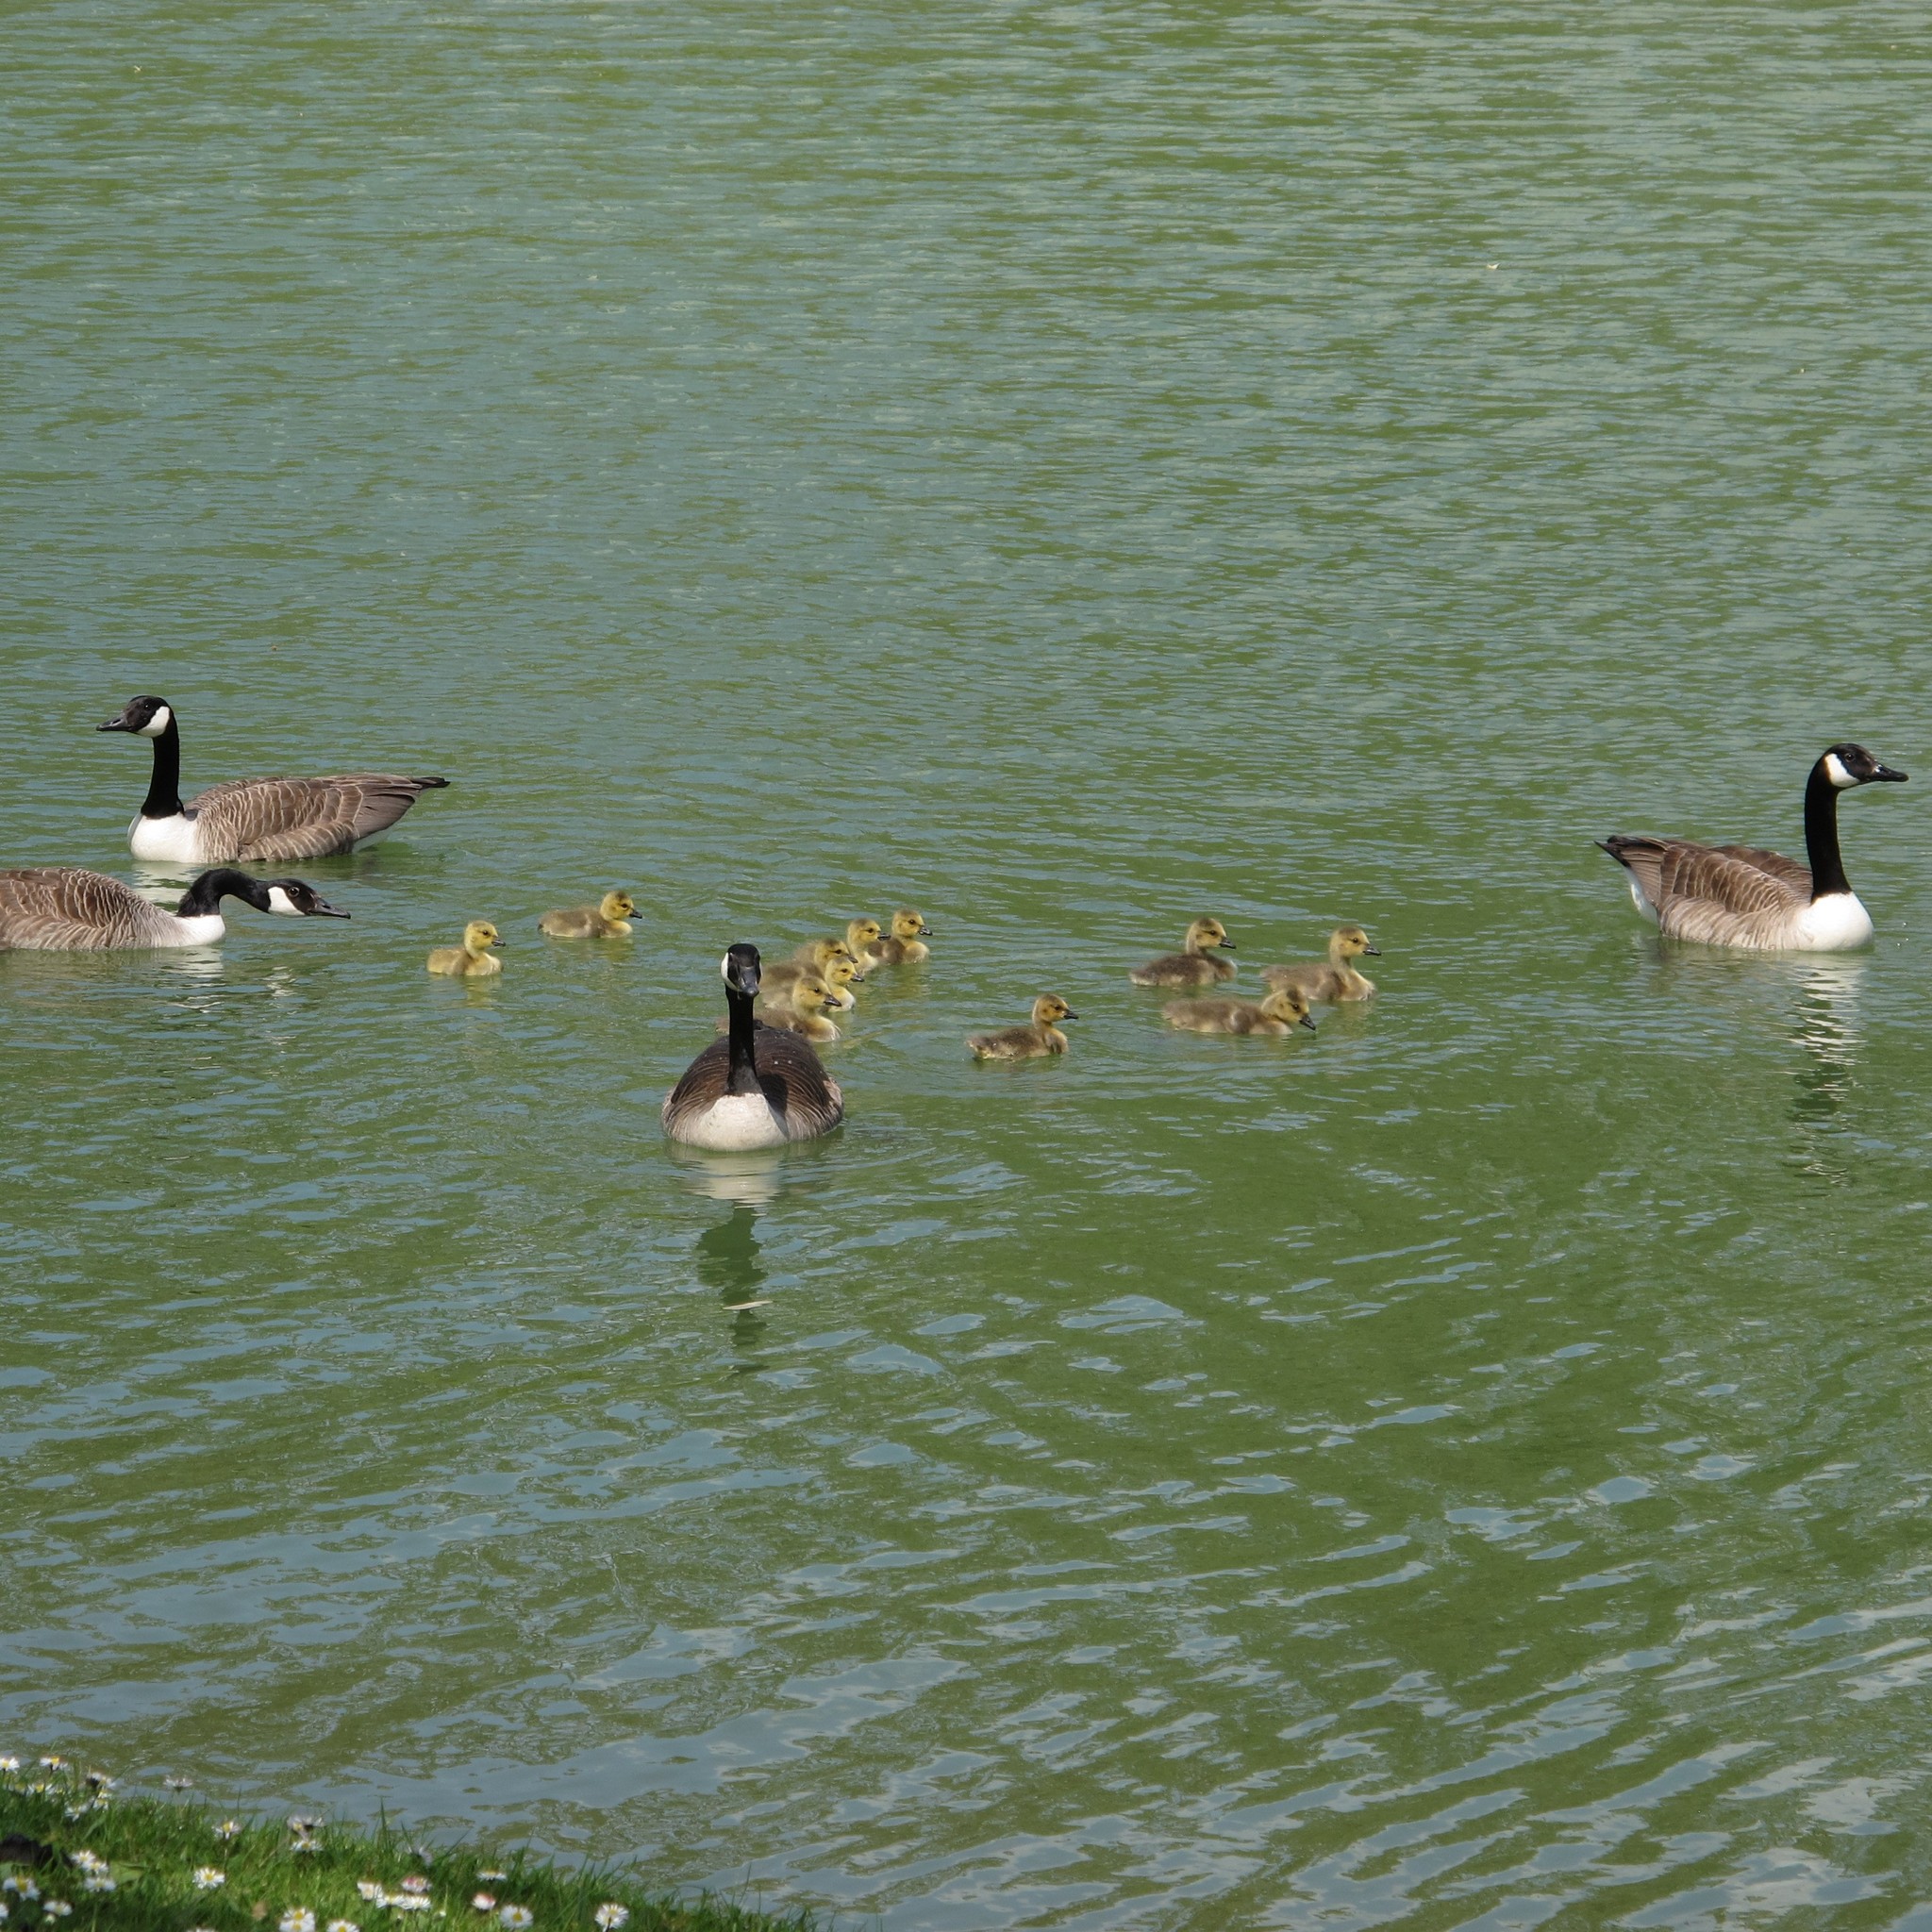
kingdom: Animalia
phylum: Chordata
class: Aves
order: Anseriformes
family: Anatidae
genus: Branta
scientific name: Branta canadensis
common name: Canada goose
